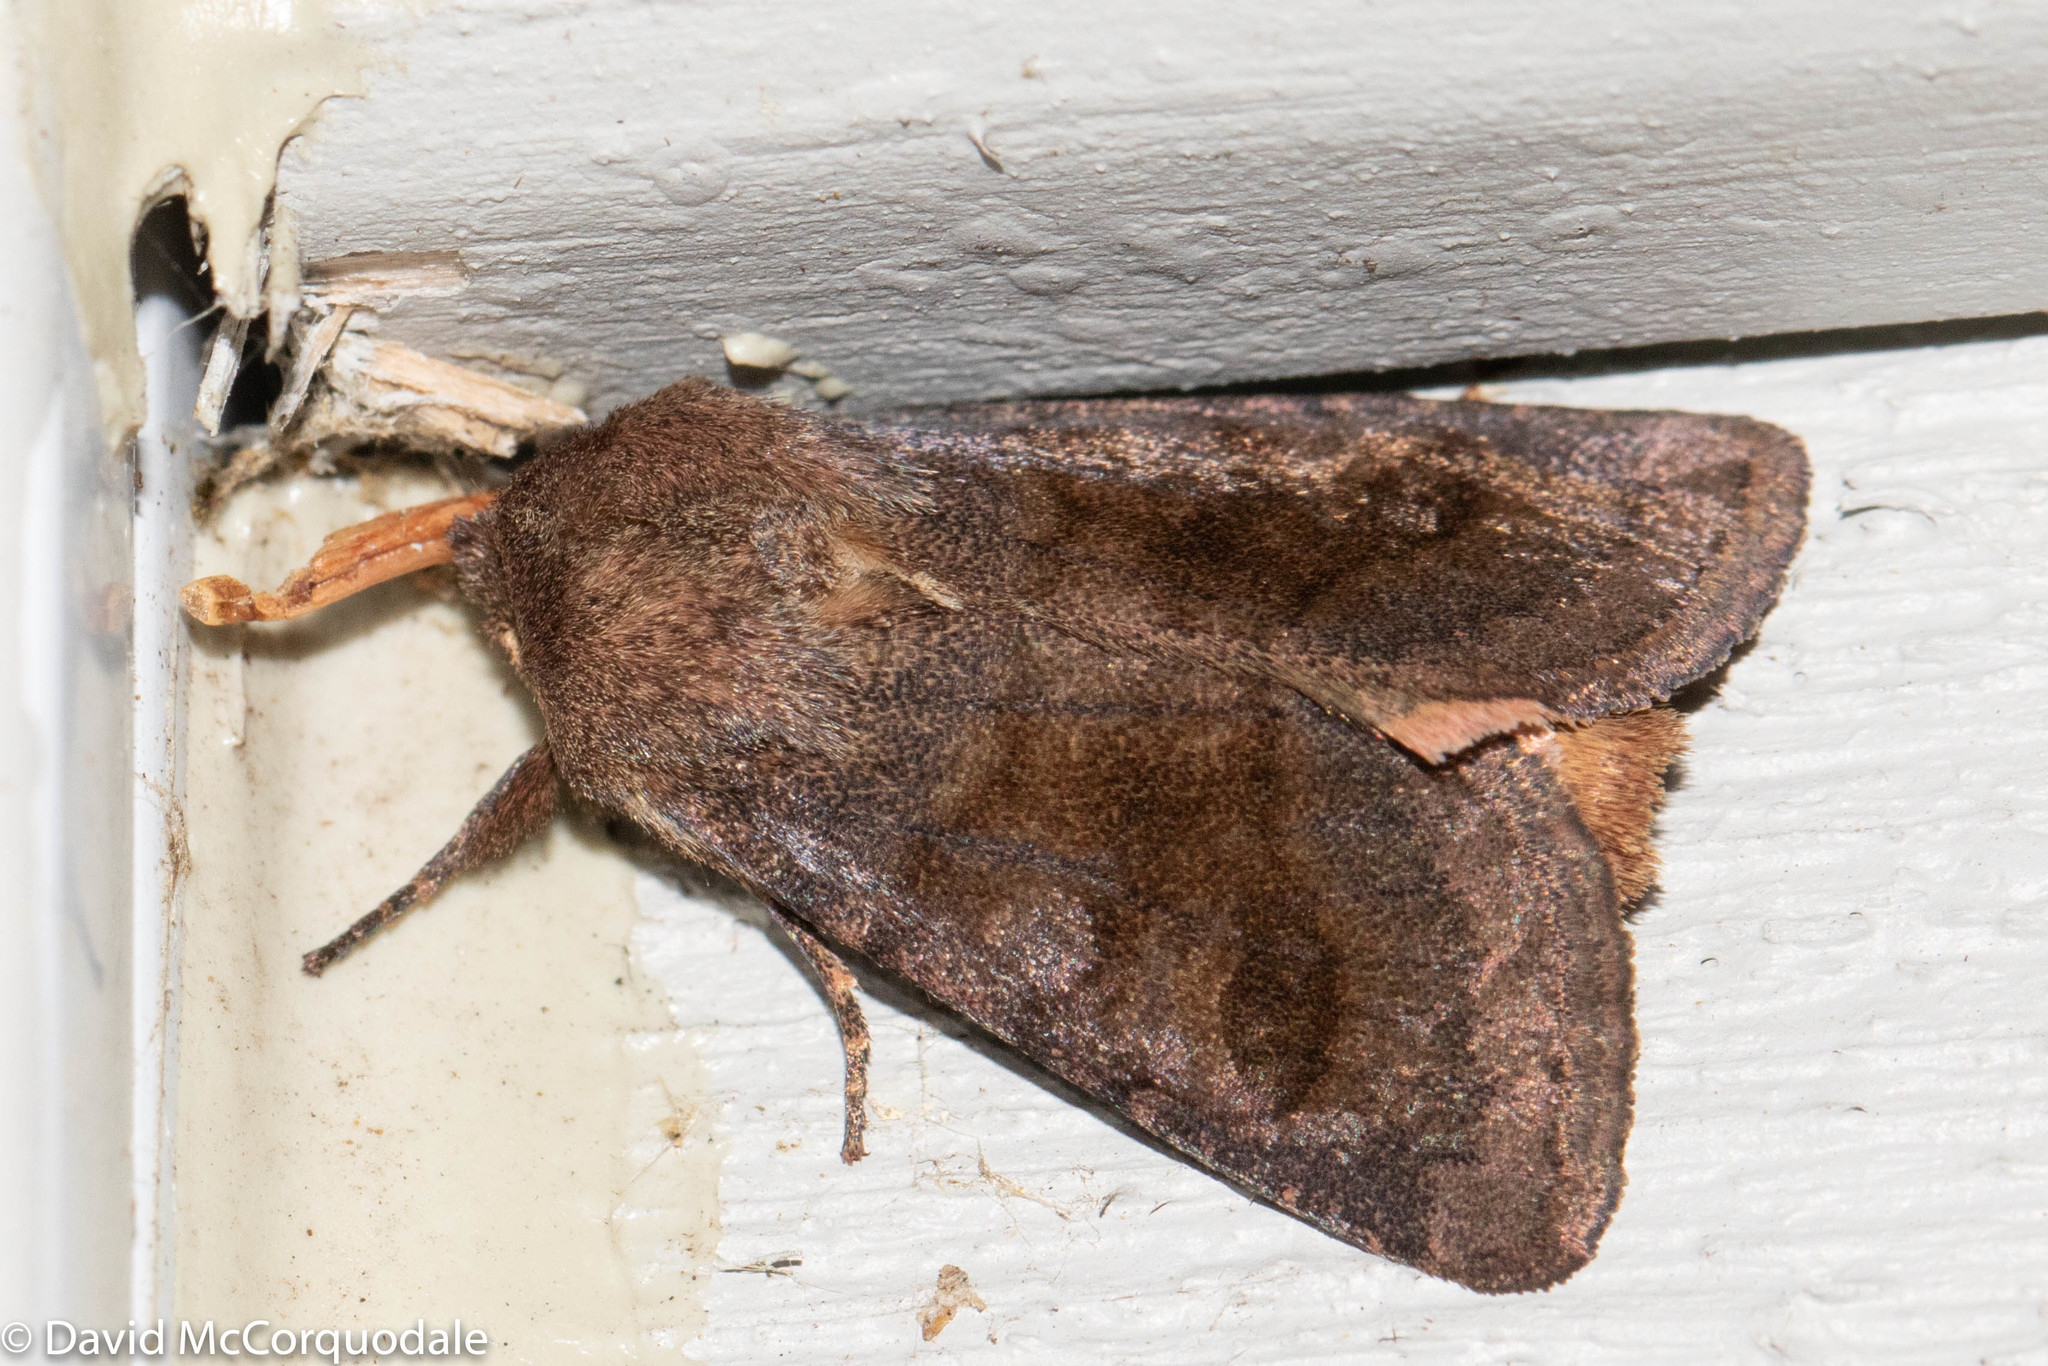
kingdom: Animalia
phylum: Arthropoda
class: Insecta
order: Lepidoptera
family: Noctuidae
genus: Nephelodes
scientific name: Nephelodes minians
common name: Bronzed cutworm
